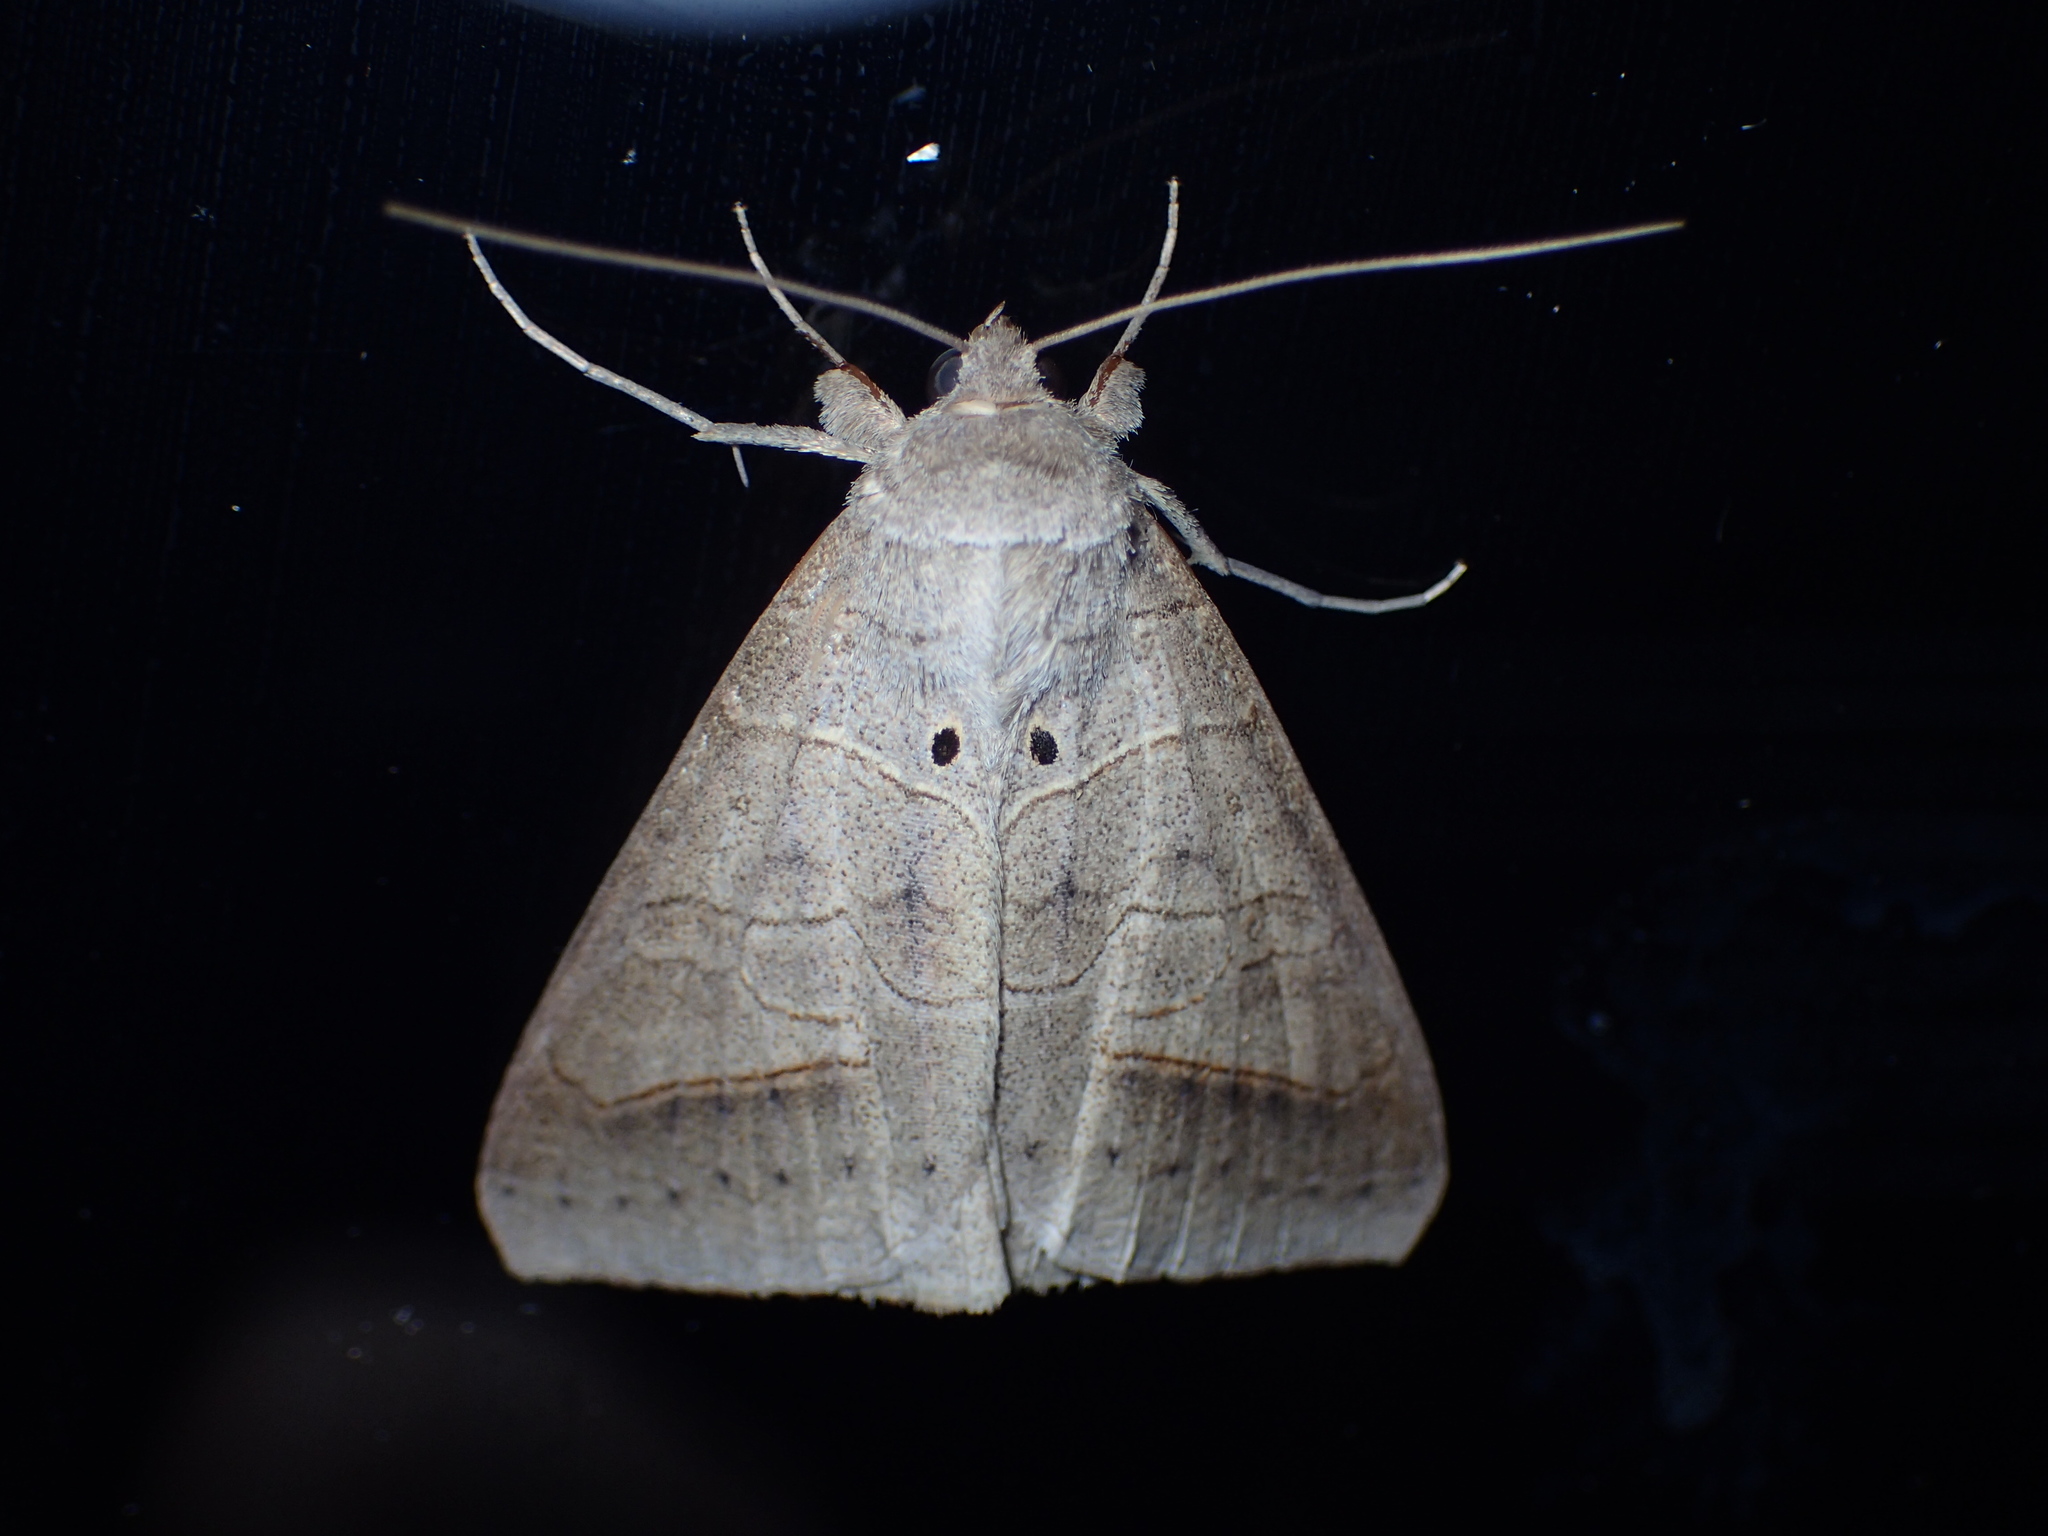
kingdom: Animalia
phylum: Arthropoda
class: Insecta
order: Lepidoptera
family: Erebidae
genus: Mocis
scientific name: Mocis marcida
